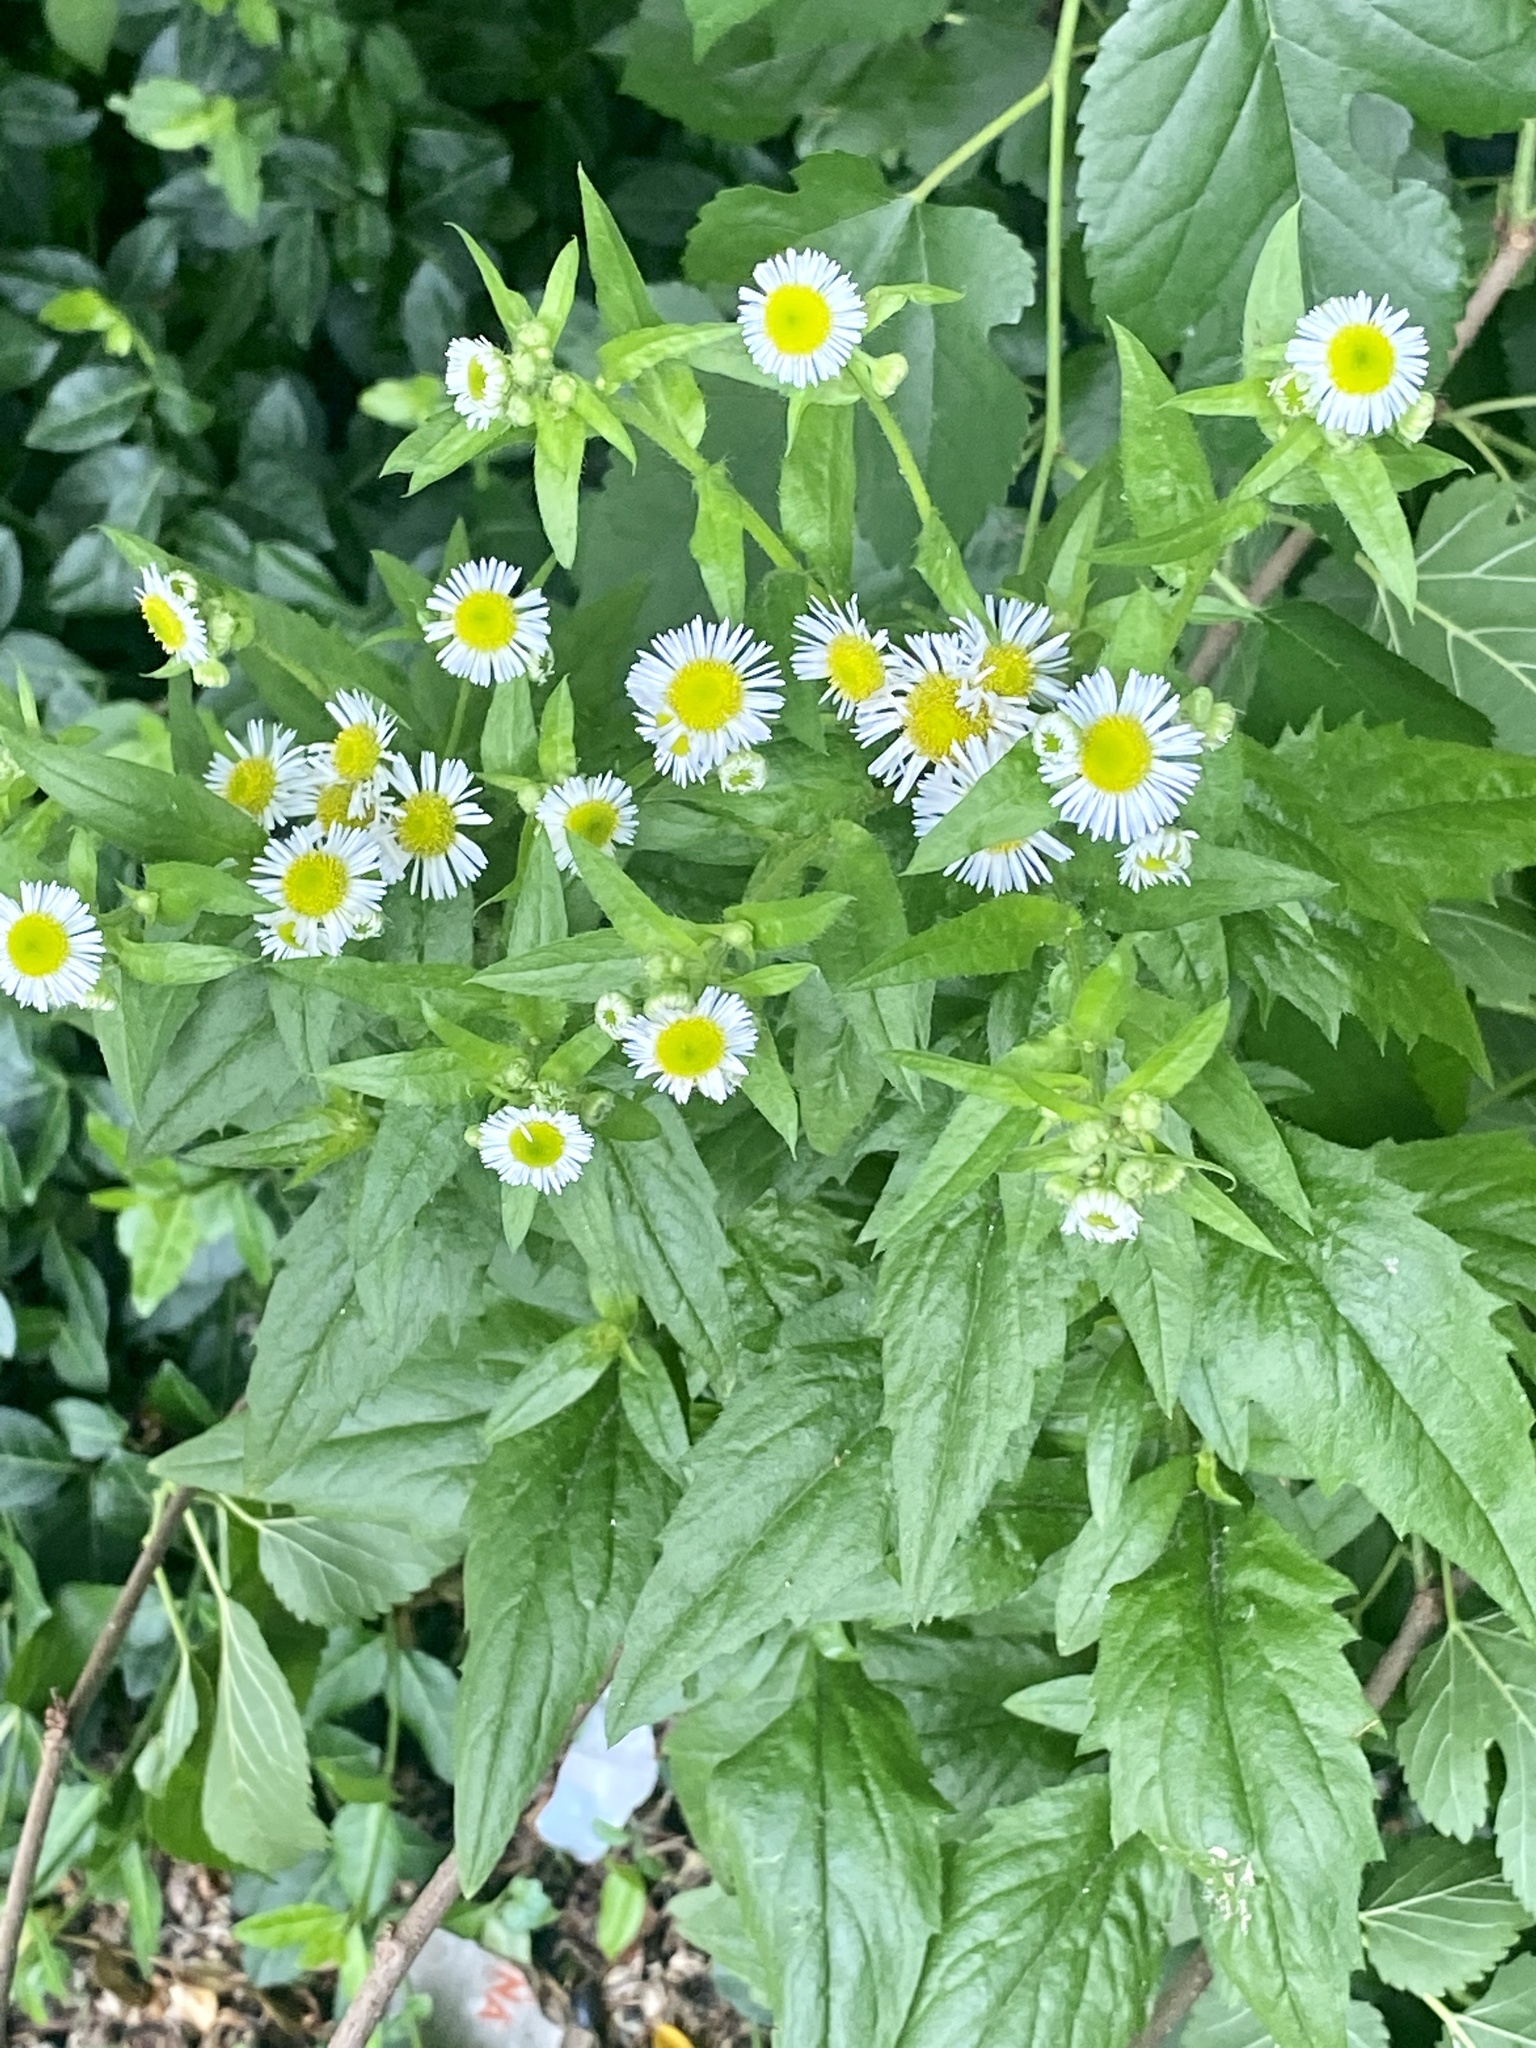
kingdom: Plantae
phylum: Tracheophyta
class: Magnoliopsida
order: Asterales
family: Asteraceae
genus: Erigeron
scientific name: Erigeron annuus
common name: Tall fleabane
